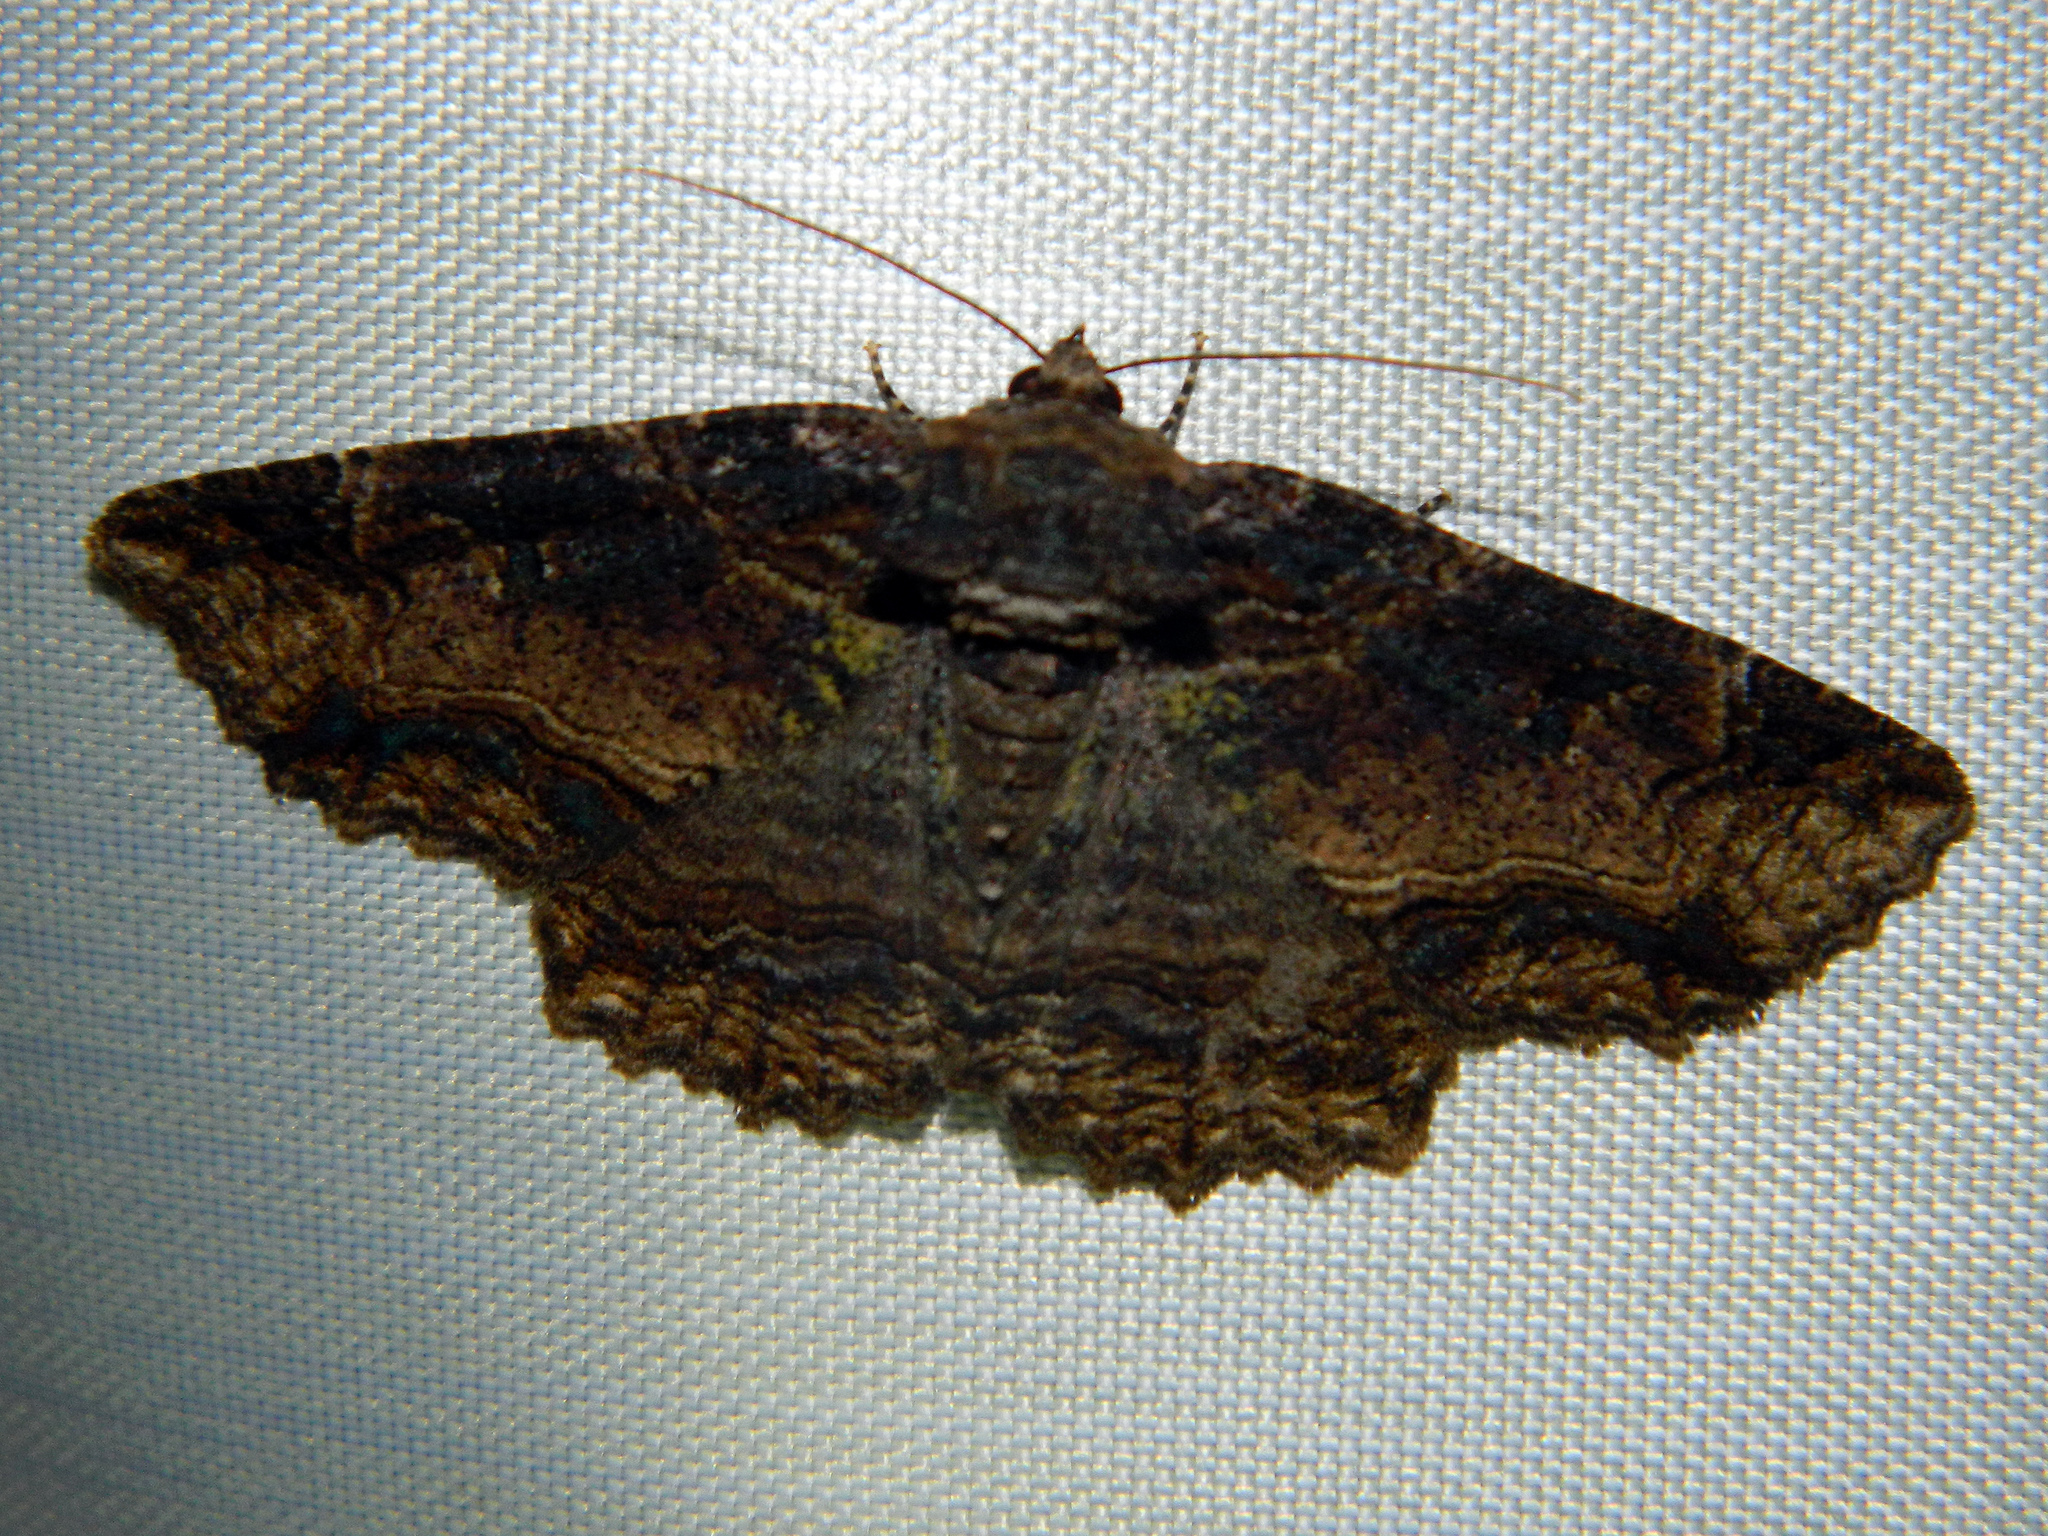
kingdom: Animalia
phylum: Arthropoda
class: Insecta
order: Lepidoptera
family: Erebidae
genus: Zale
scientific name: Zale minerea
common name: Colorful zale moth
